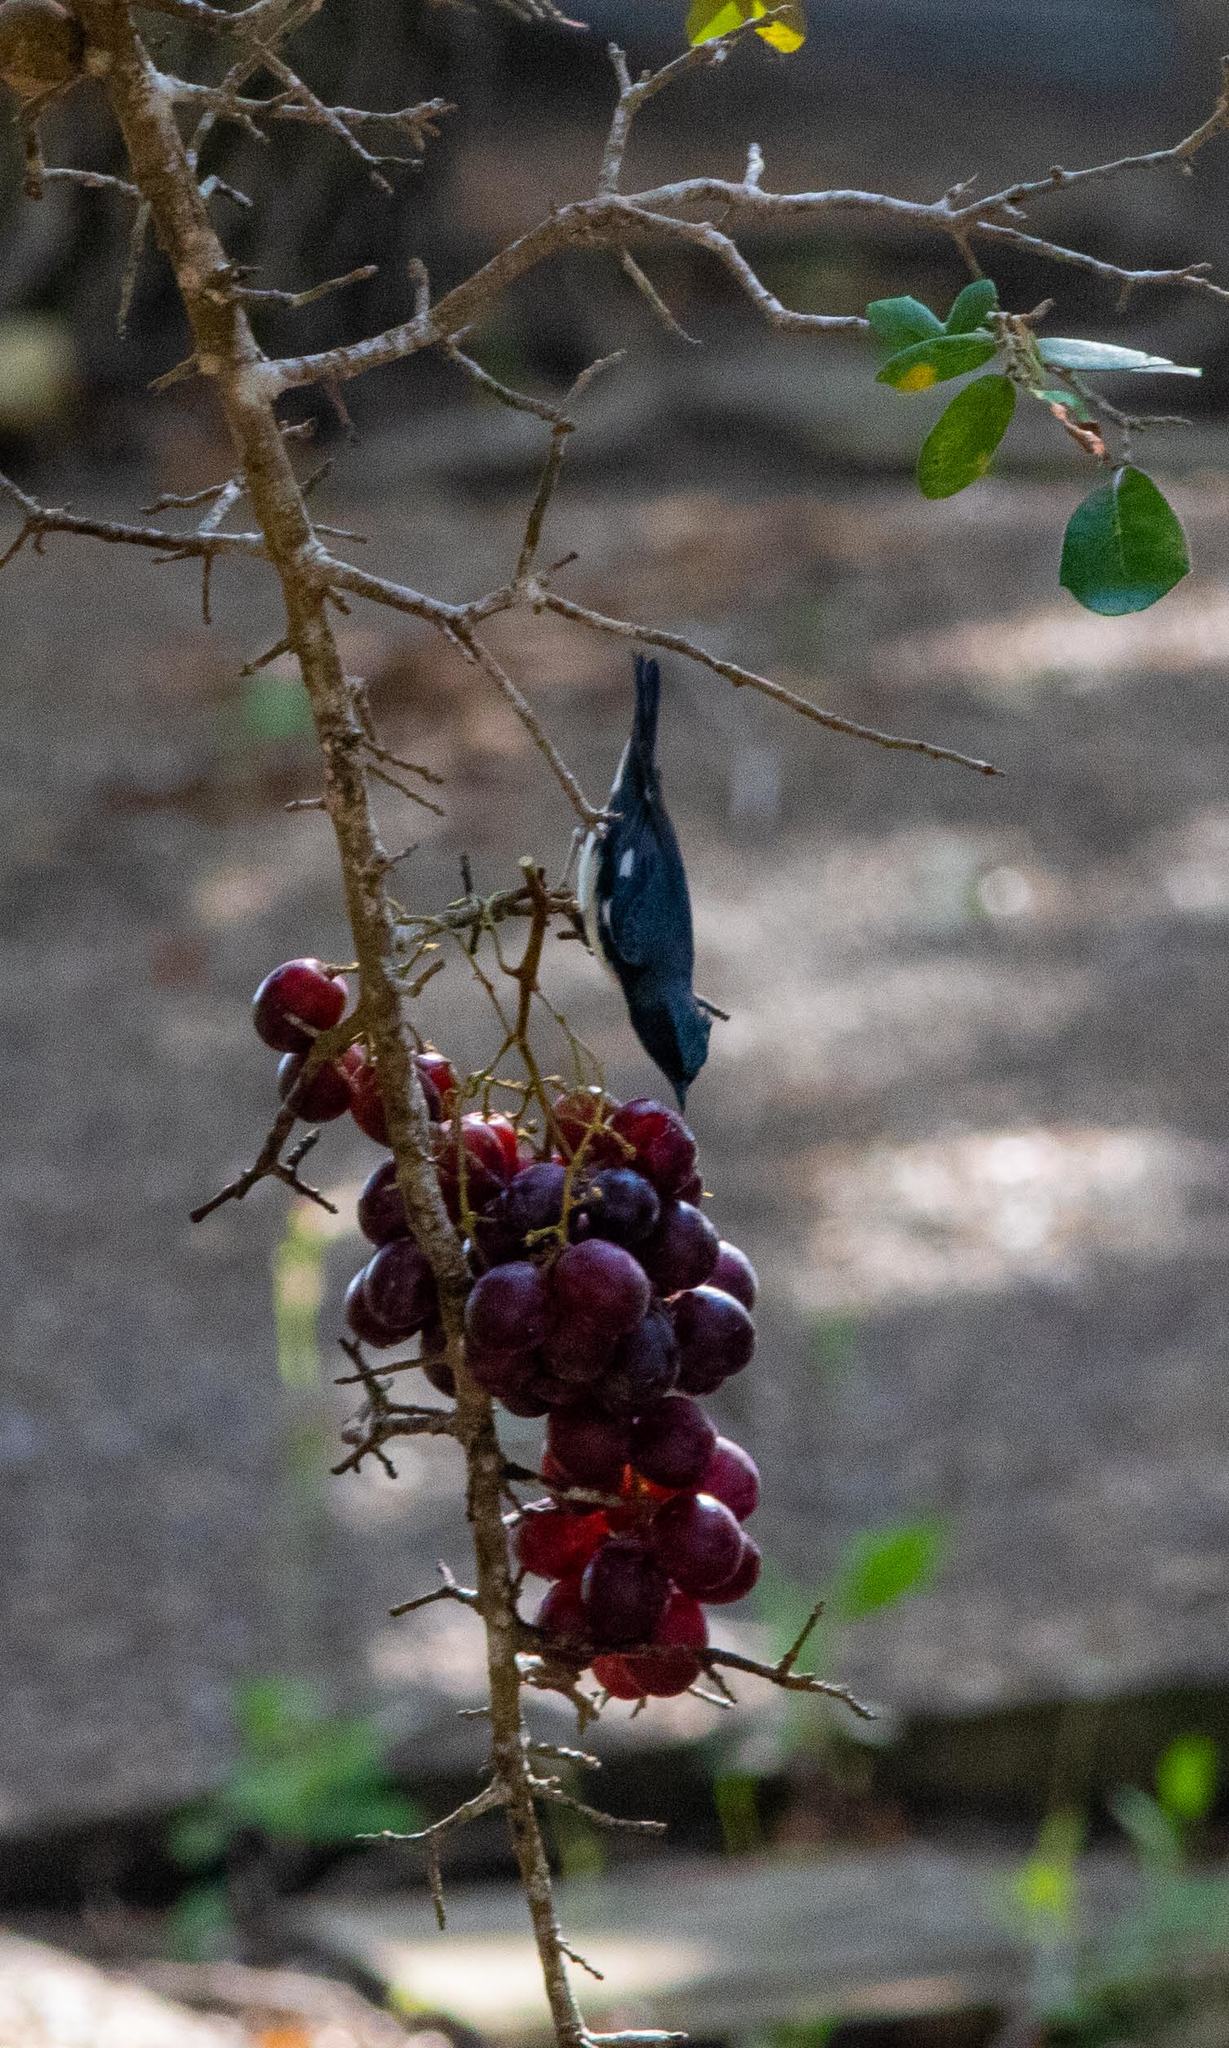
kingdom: Animalia
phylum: Chordata
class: Aves
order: Passeriformes
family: Parulidae
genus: Setophaga
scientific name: Setophaga caerulescens
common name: Black-throated blue warbler
